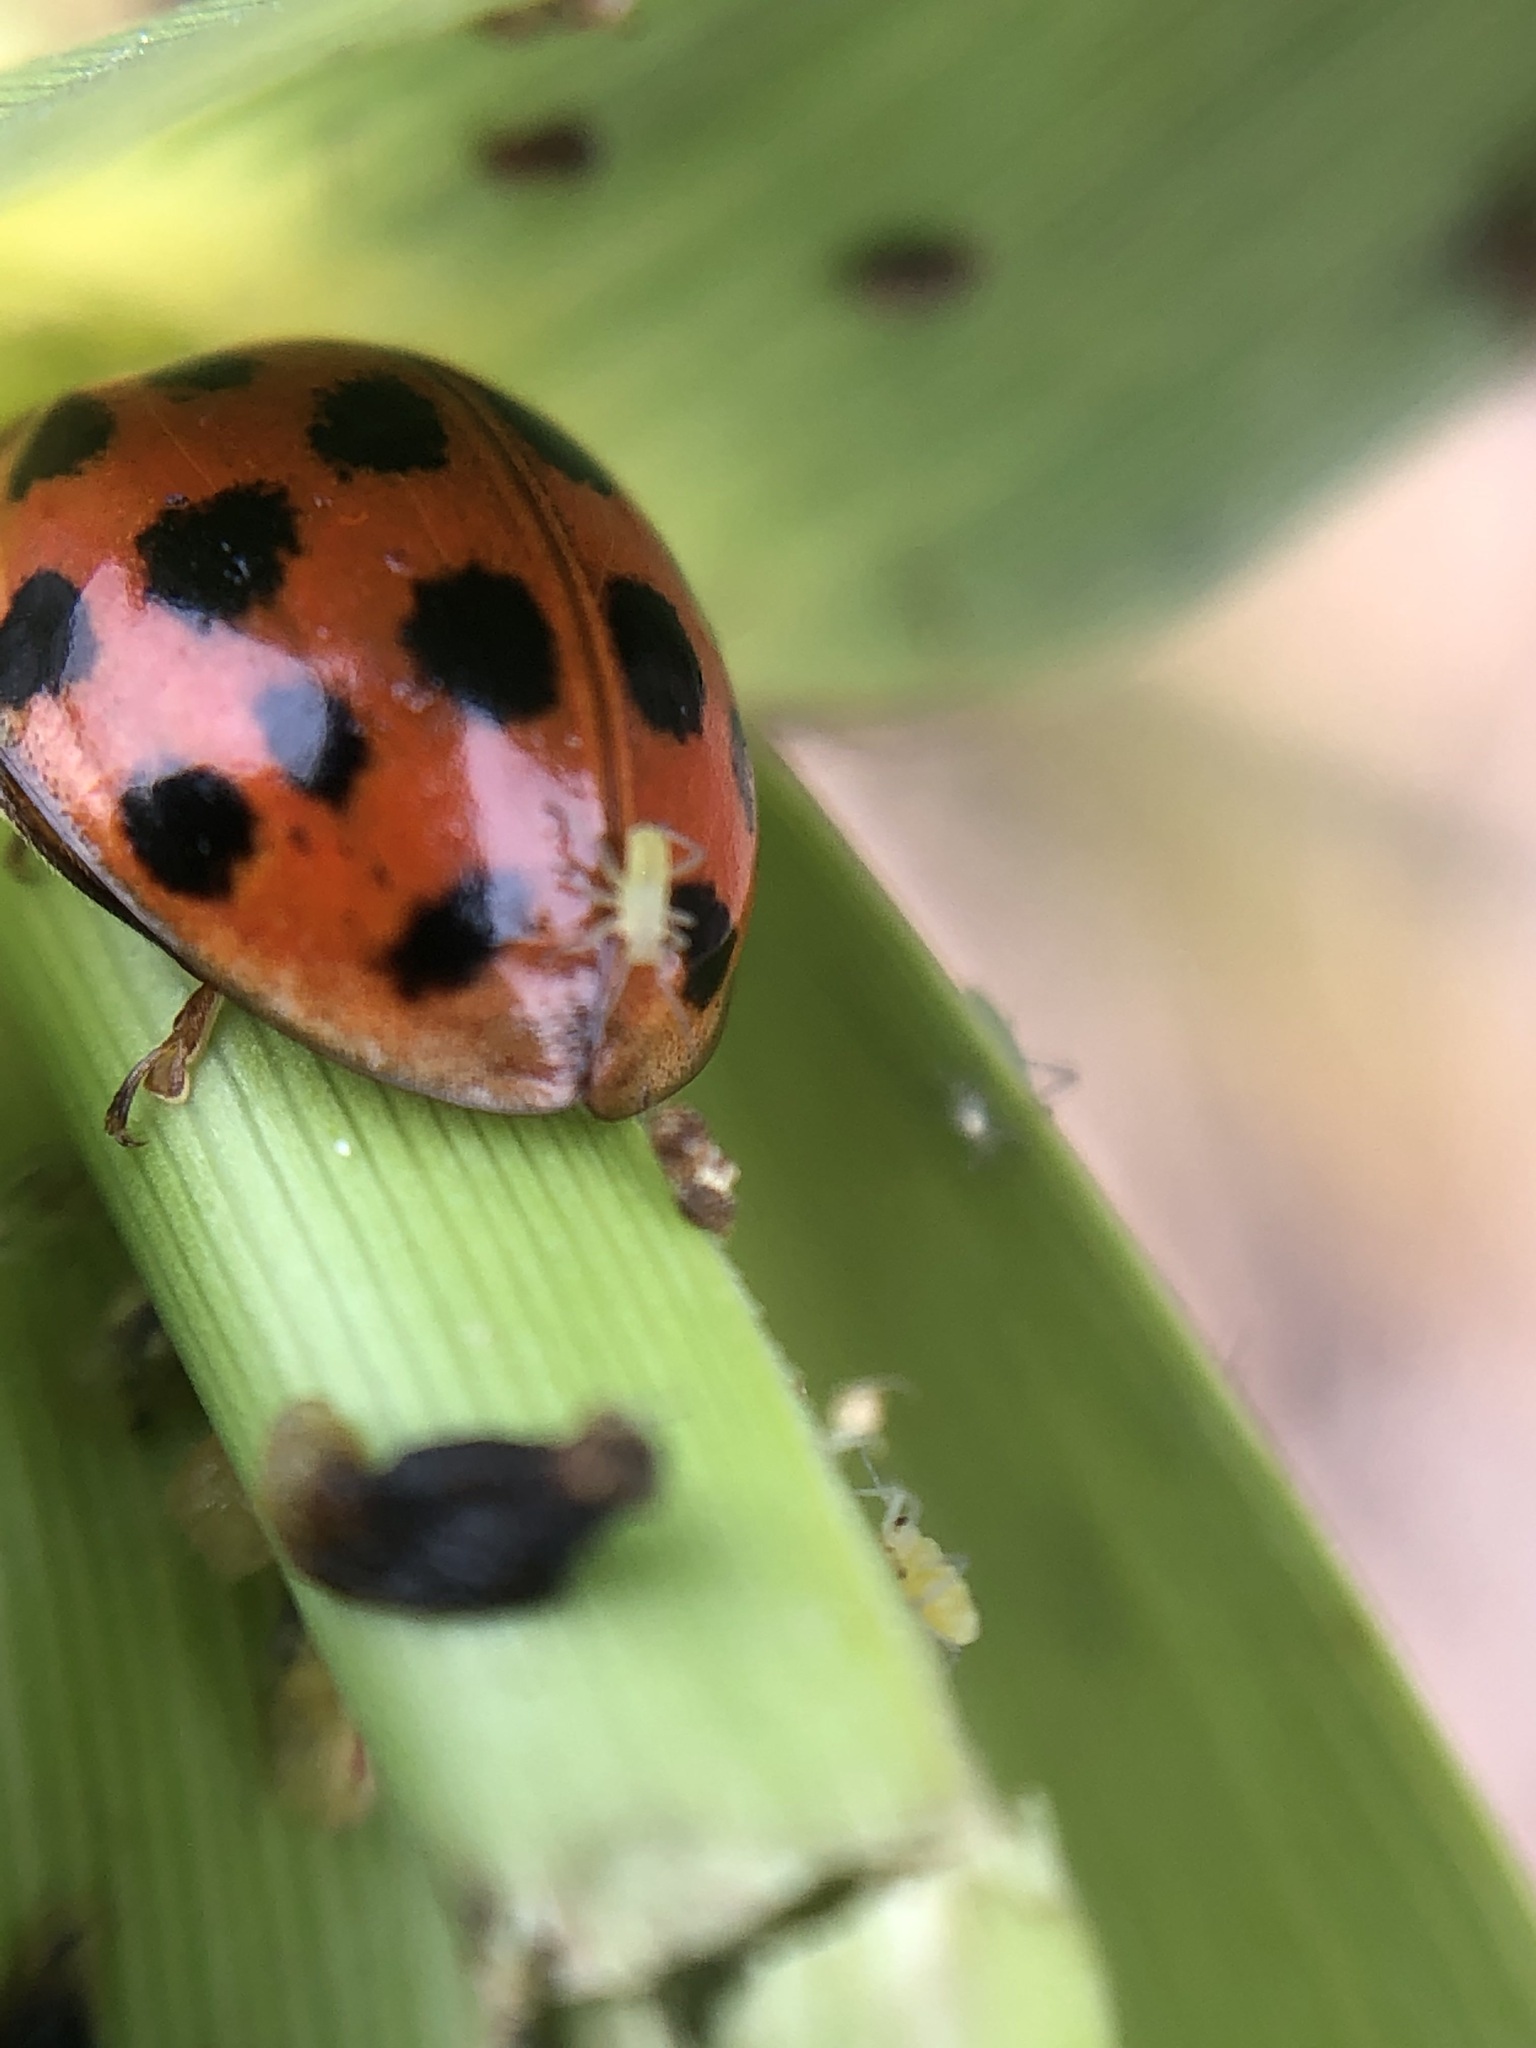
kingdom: Animalia
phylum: Arthropoda
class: Insecta
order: Coleoptera
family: Coccinellidae
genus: Harmonia
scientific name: Harmonia axyridis
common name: Harlequin ladybird
